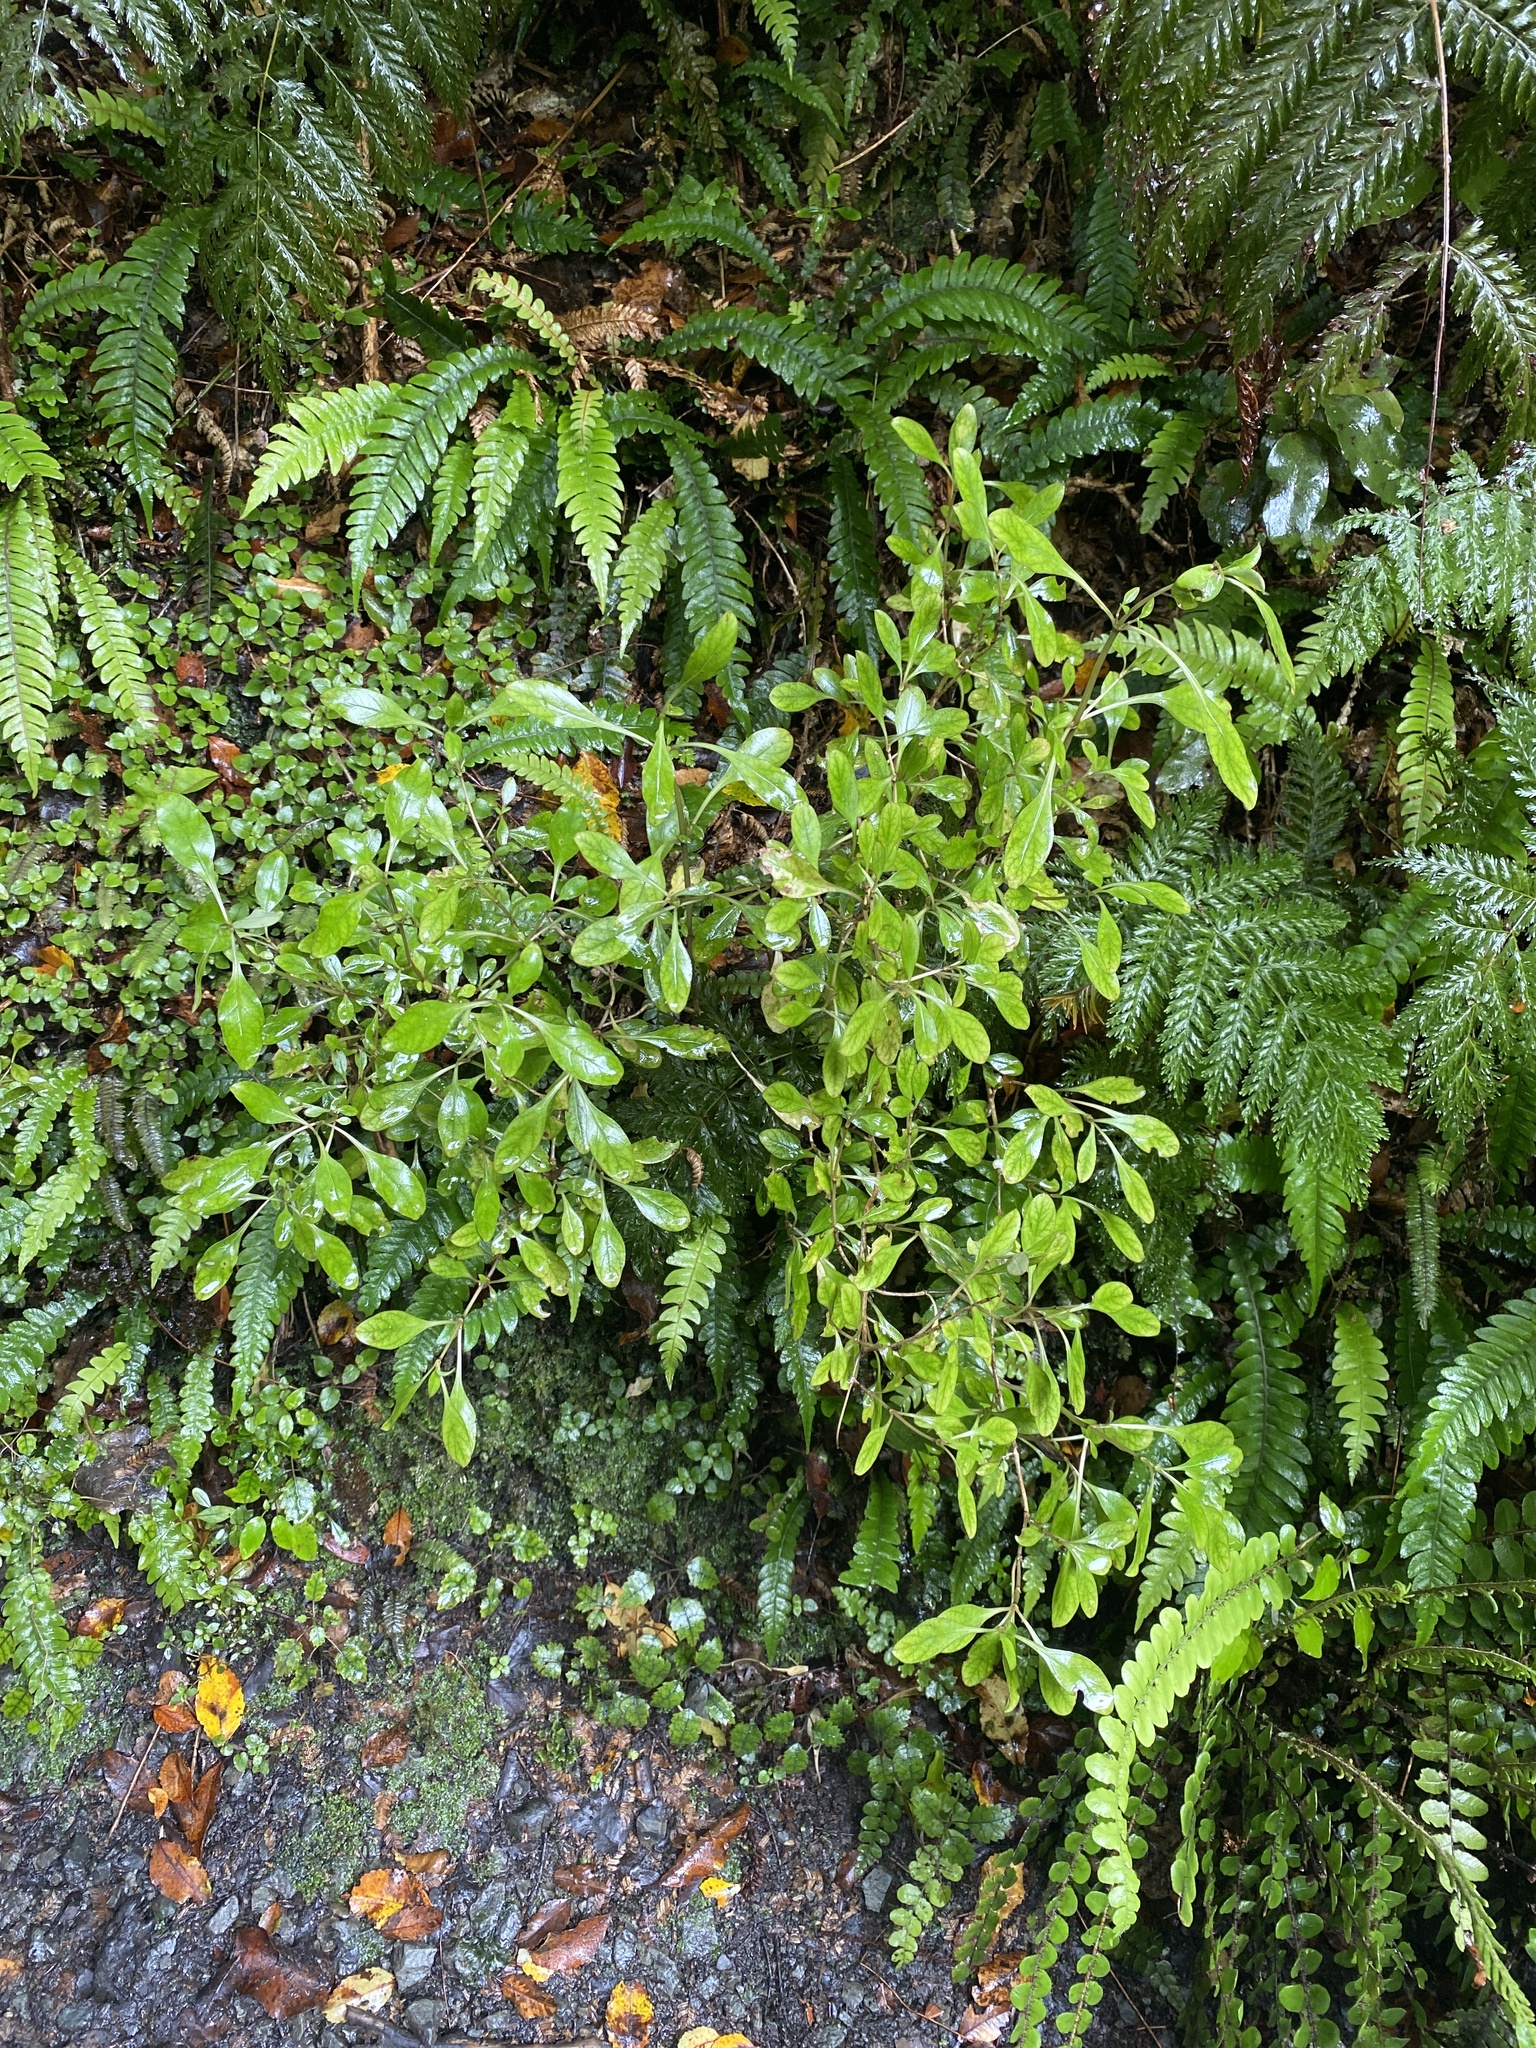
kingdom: Plantae
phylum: Tracheophyta
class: Magnoliopsida
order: Gentianales
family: Rubiaceae
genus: Coprosma
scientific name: Coprosma foetidissima
